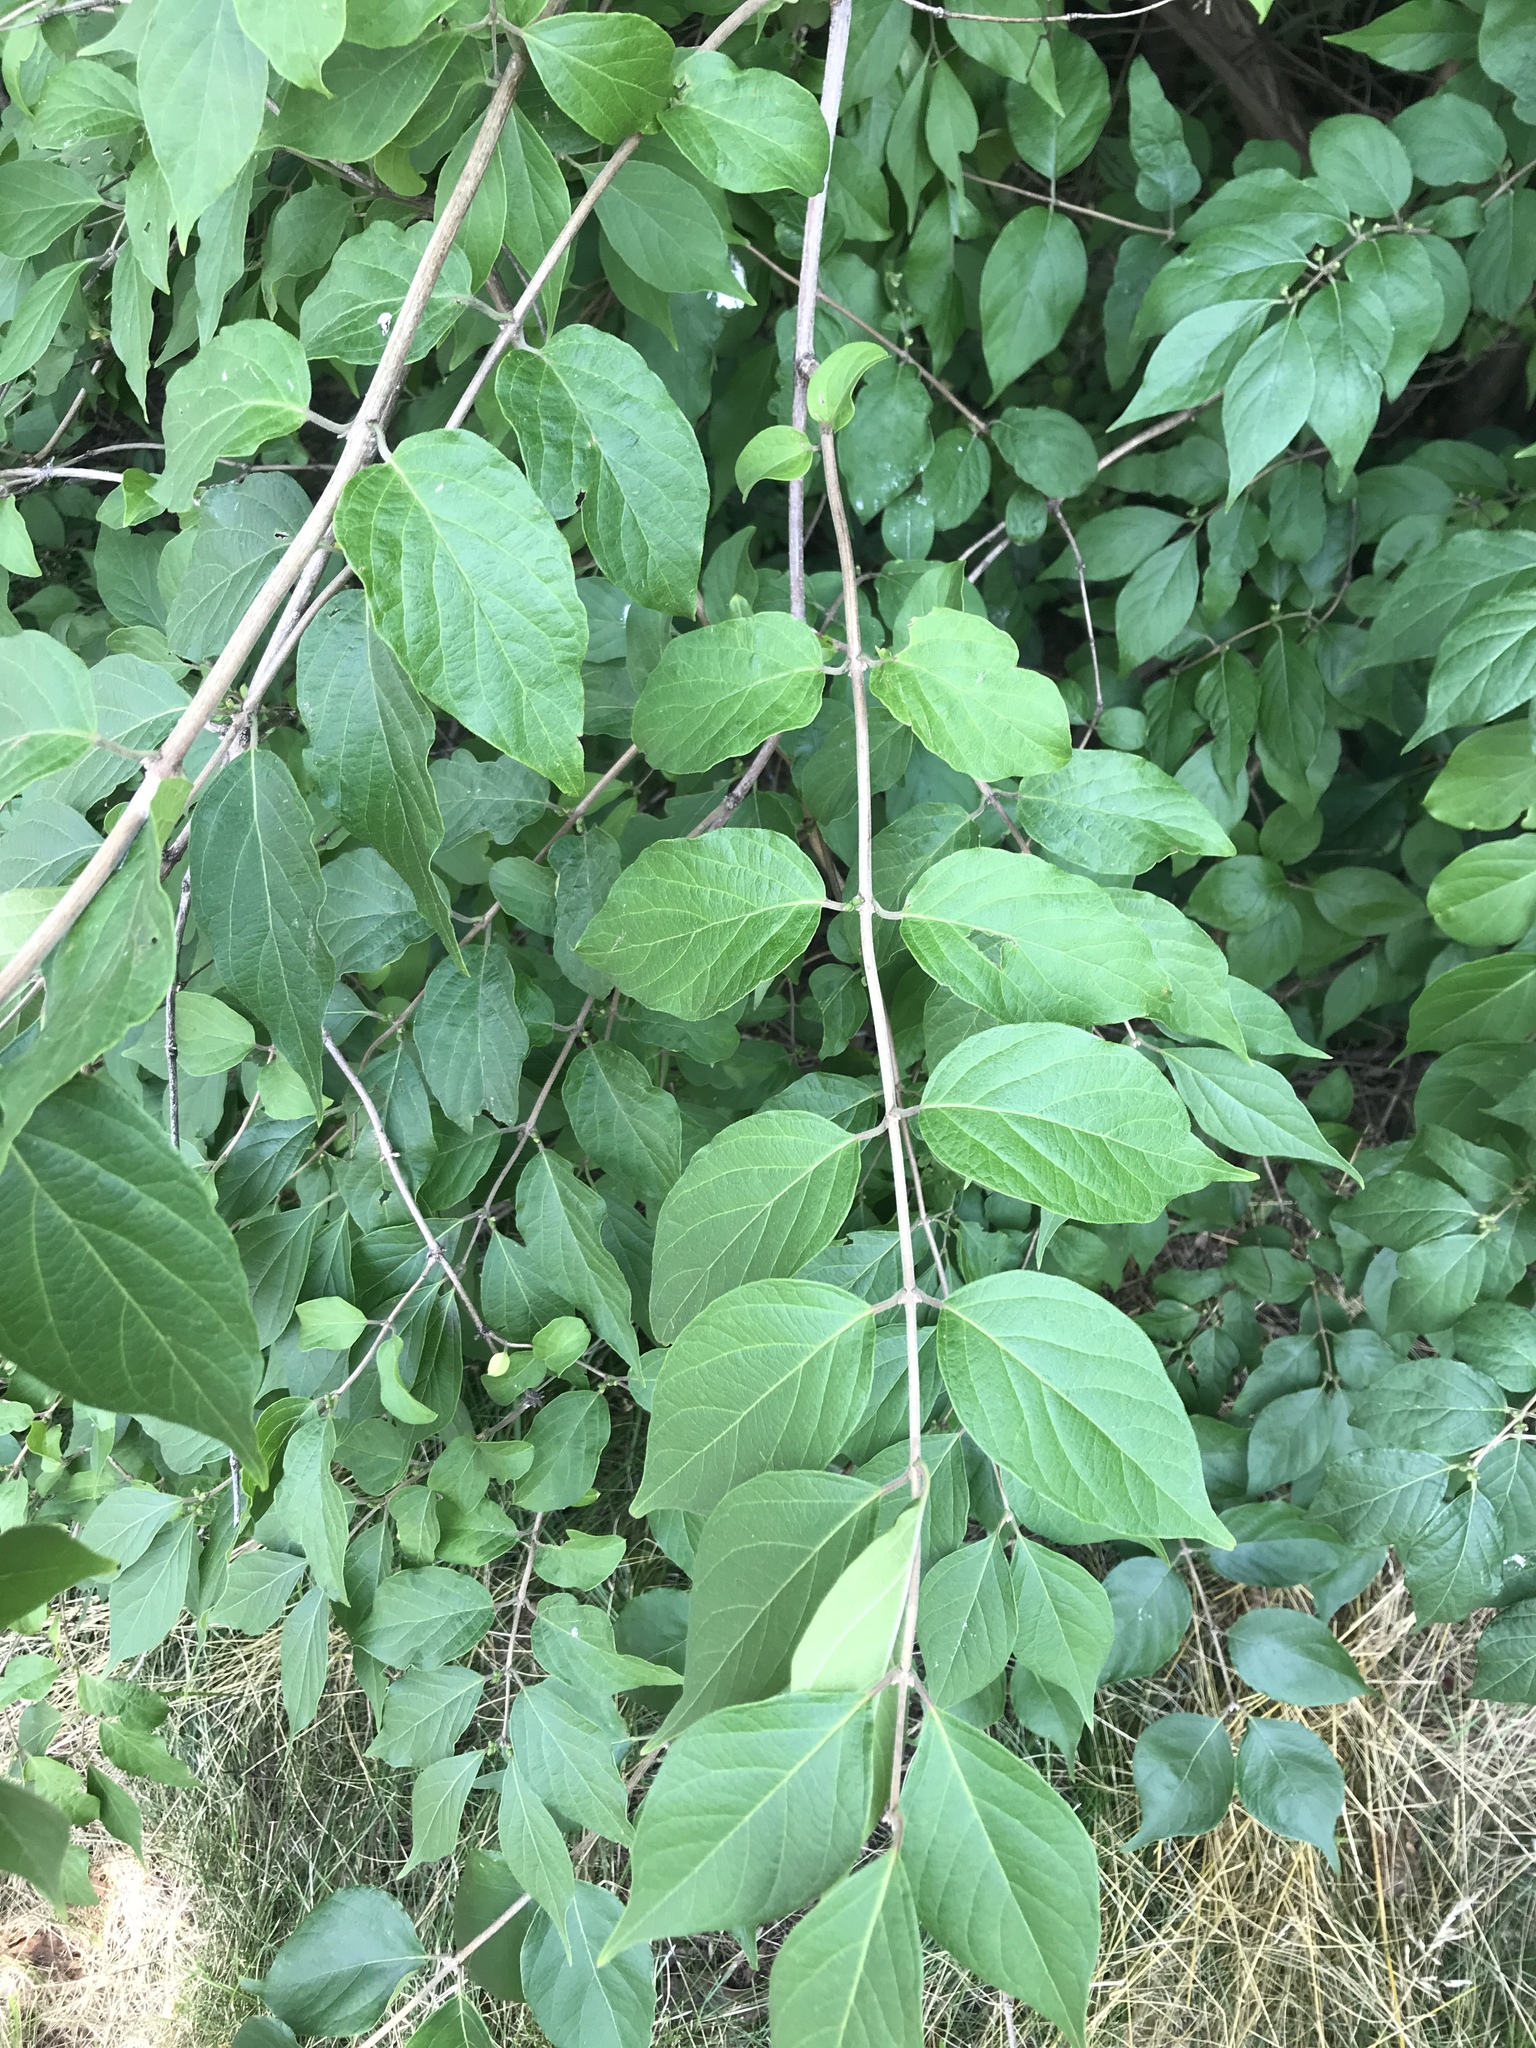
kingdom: Plantae
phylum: Tracheophyta
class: Magnoliopsida
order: Dipsacales
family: Caprifoliaceae
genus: Lonicera
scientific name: Lonicera maackii
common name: Amur honeysuckle
